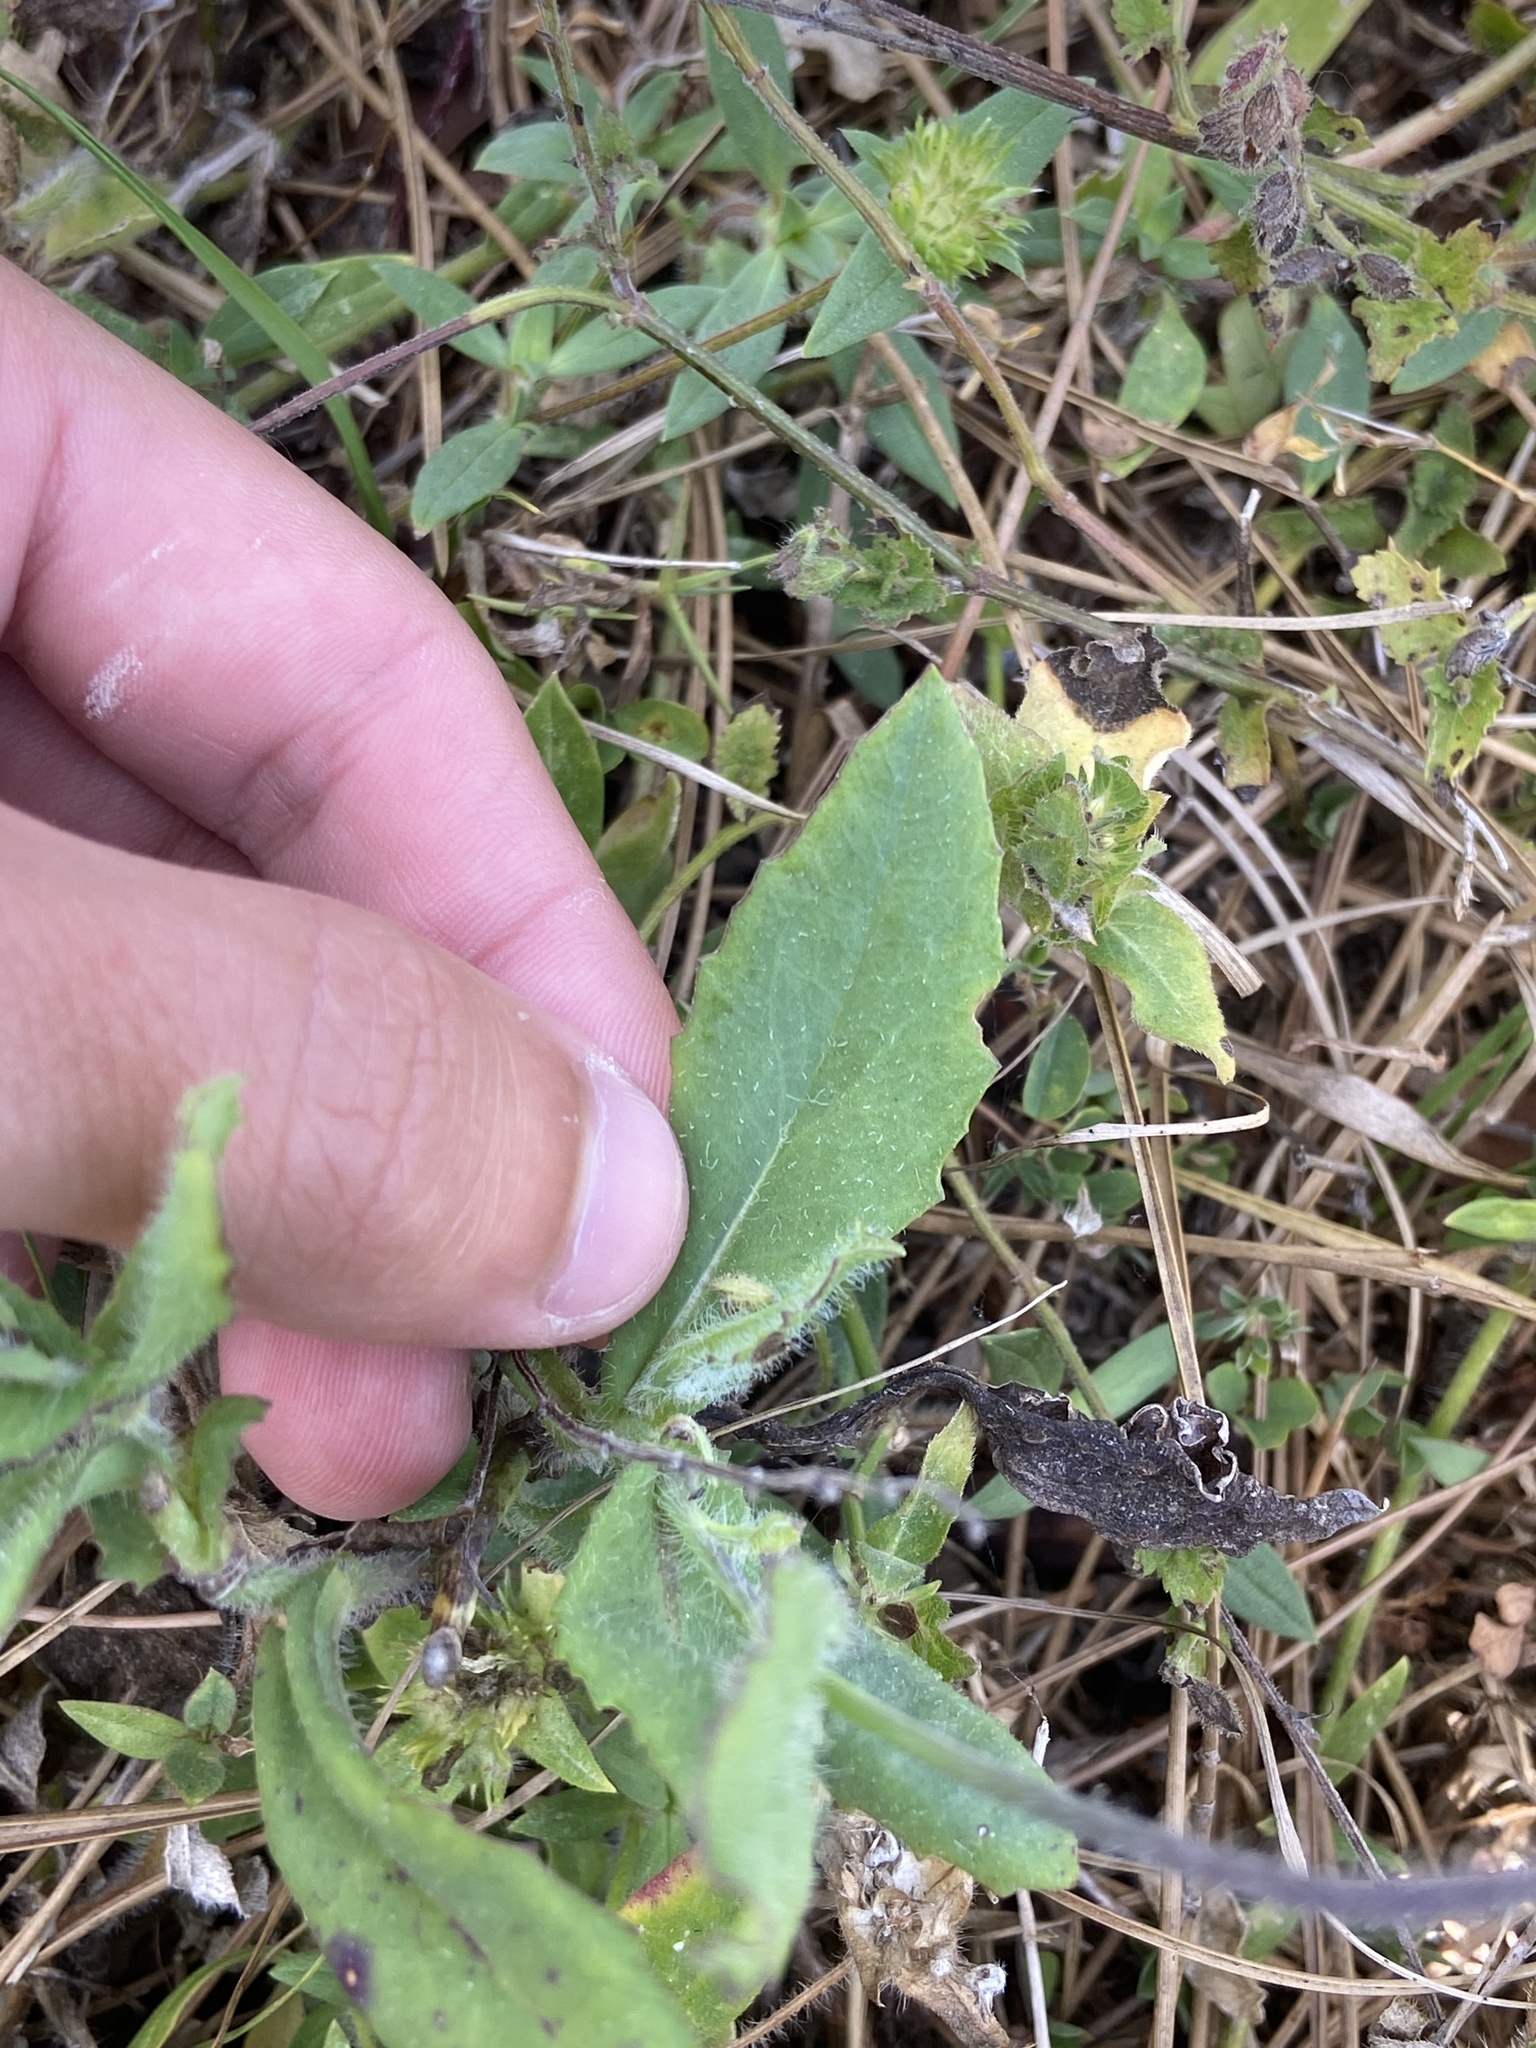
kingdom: Plantae
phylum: Tracheophyta
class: Magnoliopsida
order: Asterales
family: Asteraceae
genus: Emilia
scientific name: Emilia fosbergii
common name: Florida tasselflower
